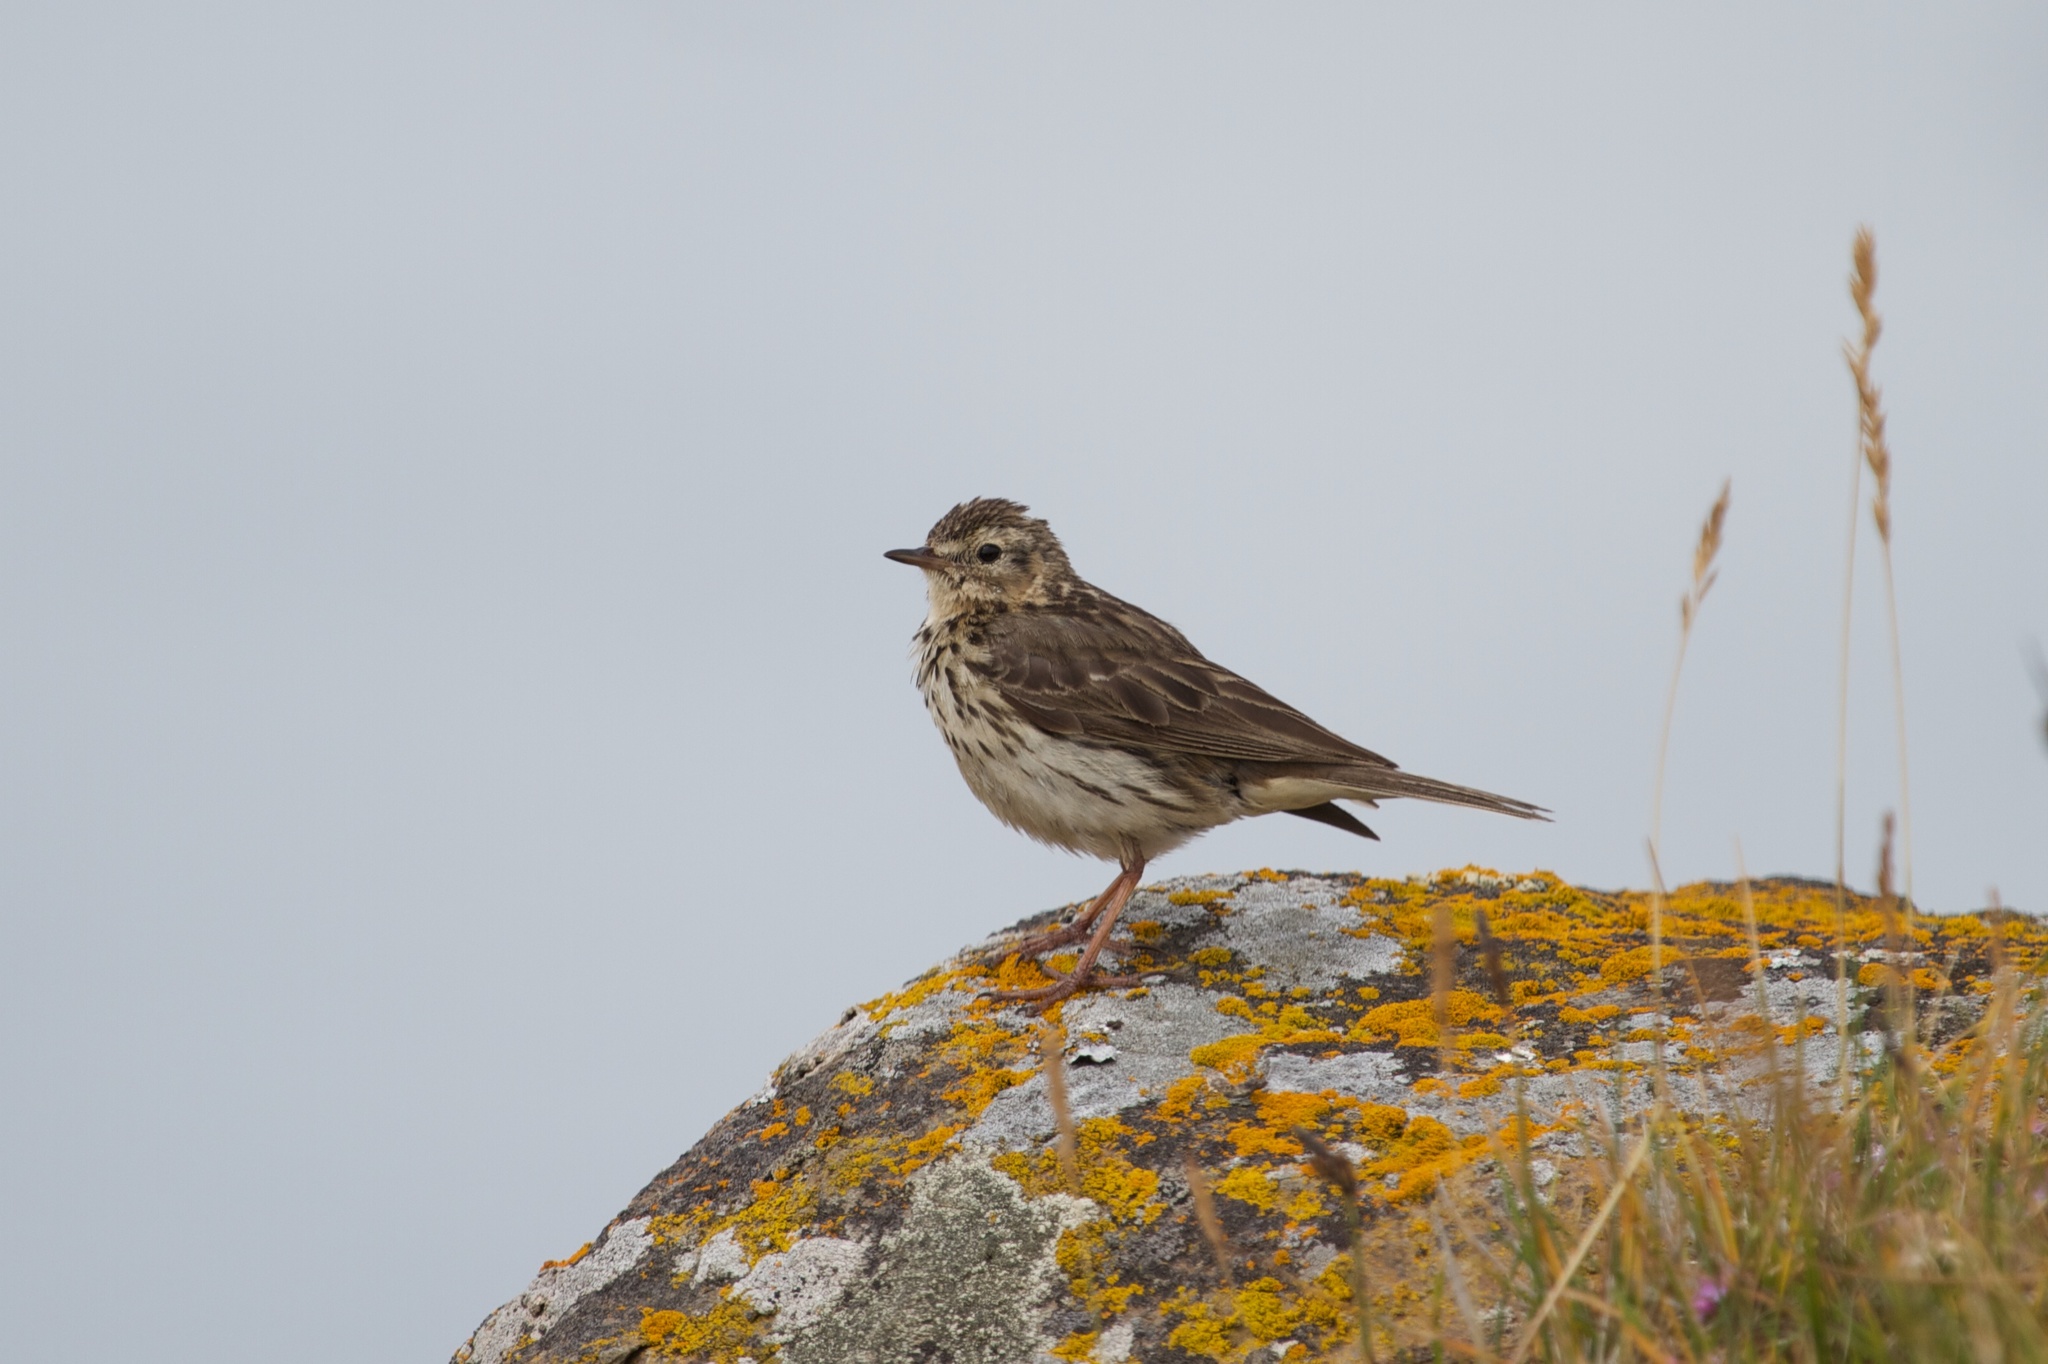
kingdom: Animalia
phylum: Chordata
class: Aves
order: Passeriformes
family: Motacillidae
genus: Anthus
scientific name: Anthus pratensis
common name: Meadow pipit
